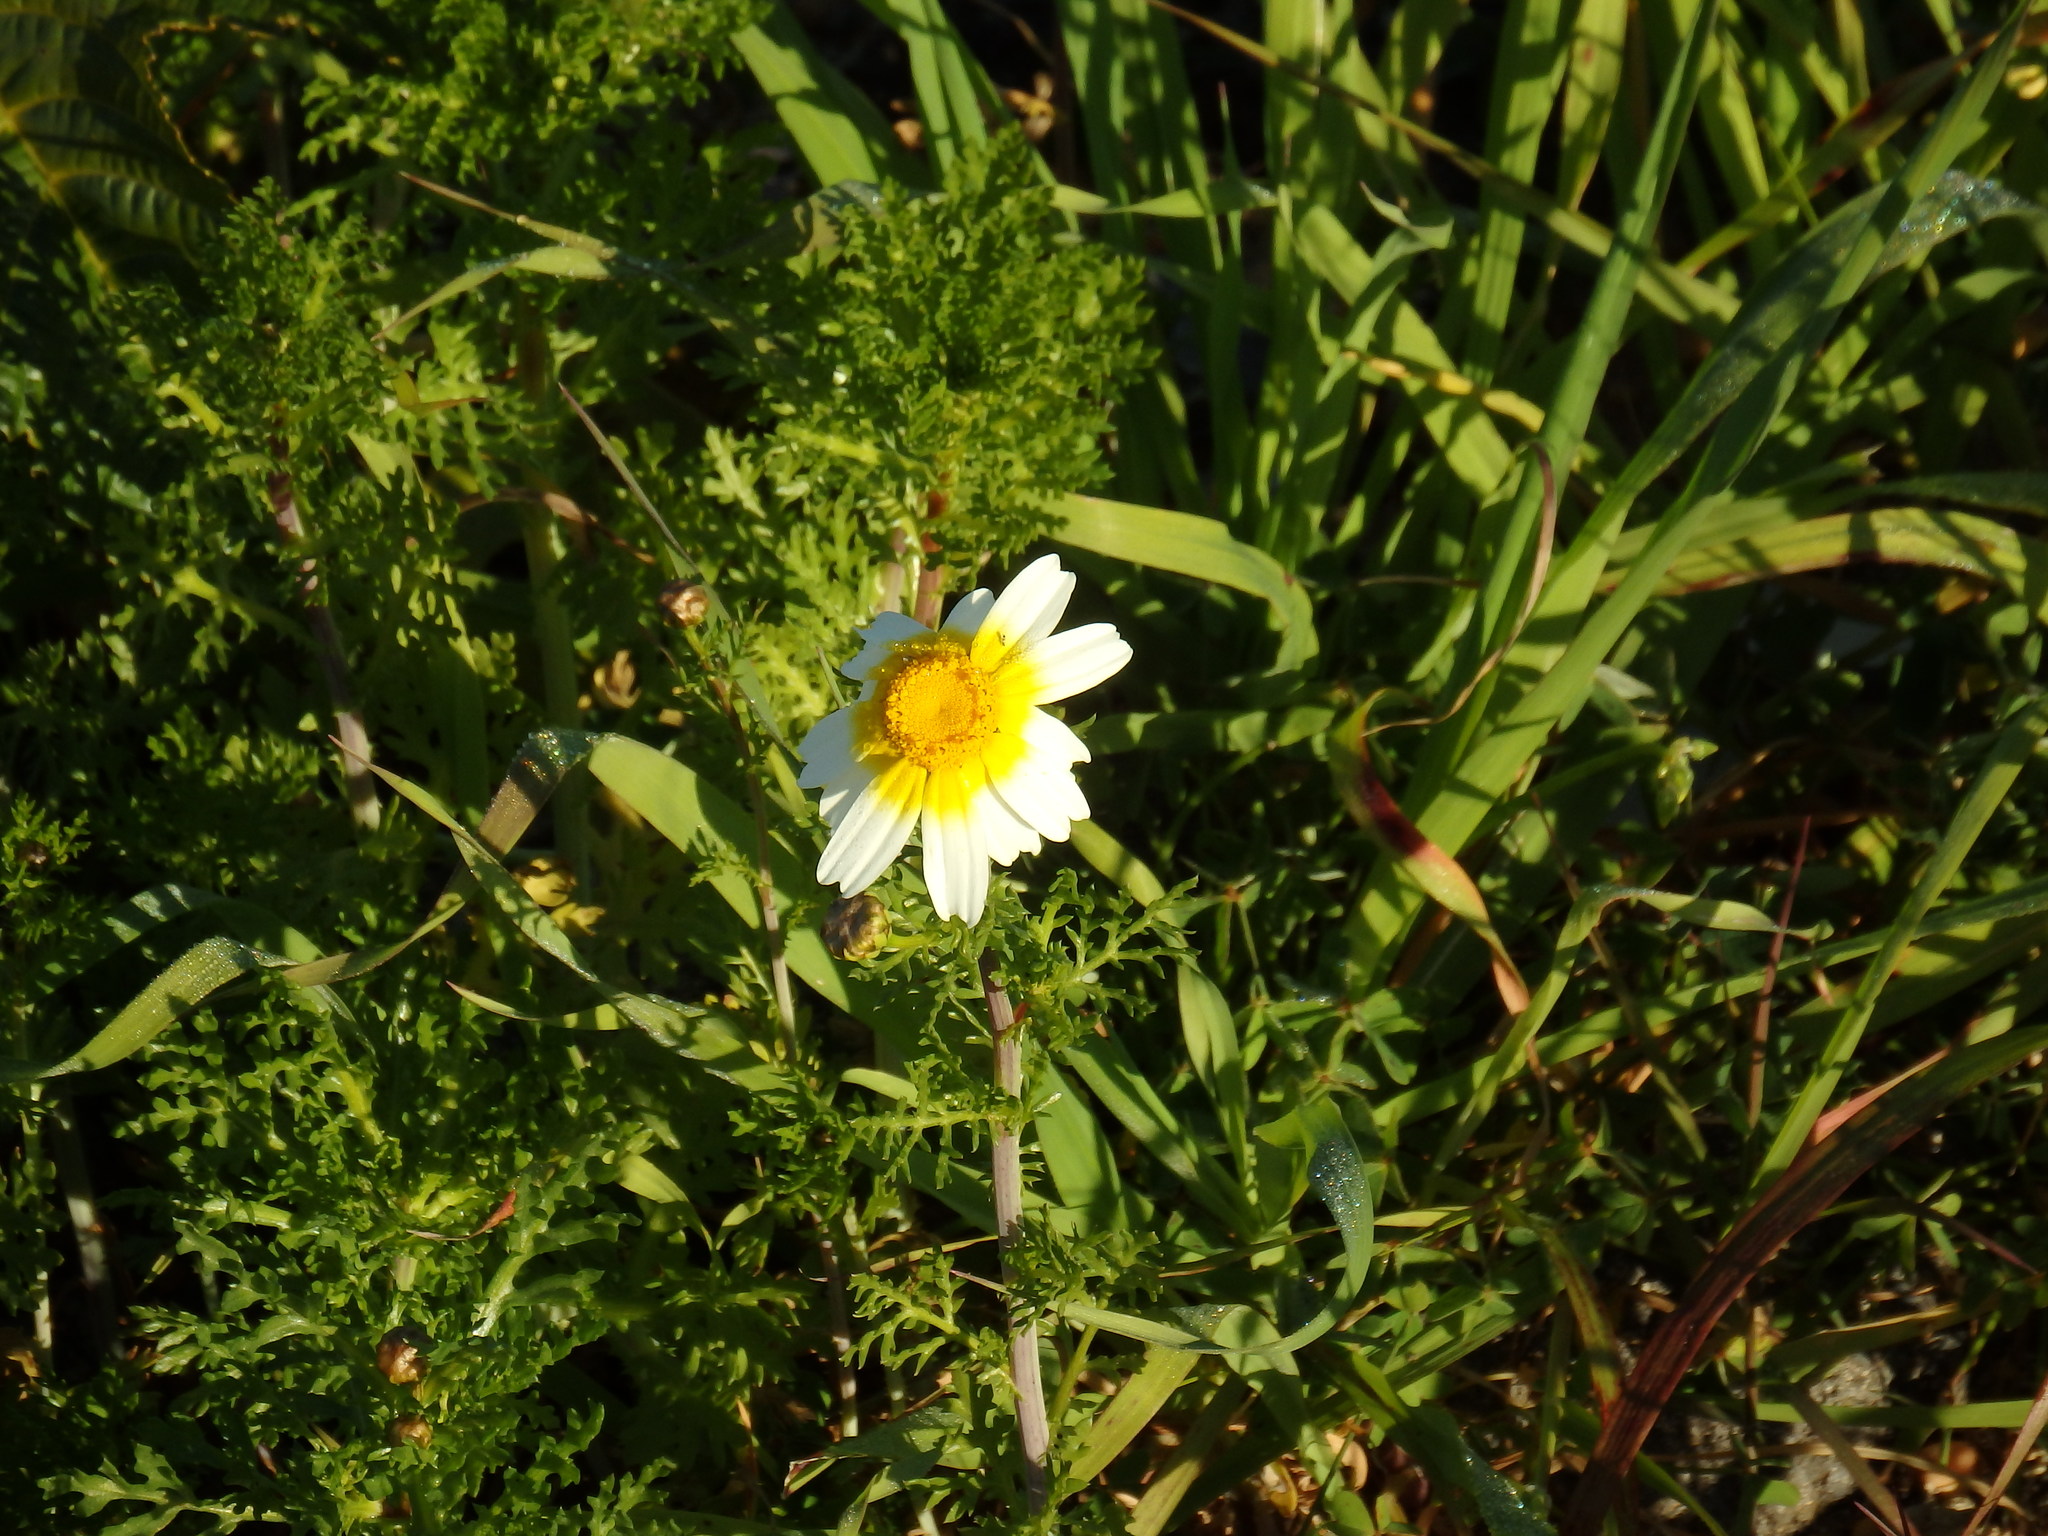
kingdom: Plantae
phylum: Tracheophyta
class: Magnoliopsida
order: Asterales
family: Asteraceae
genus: Glebionis
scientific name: Glebionis coronaria
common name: Crowndaisy
